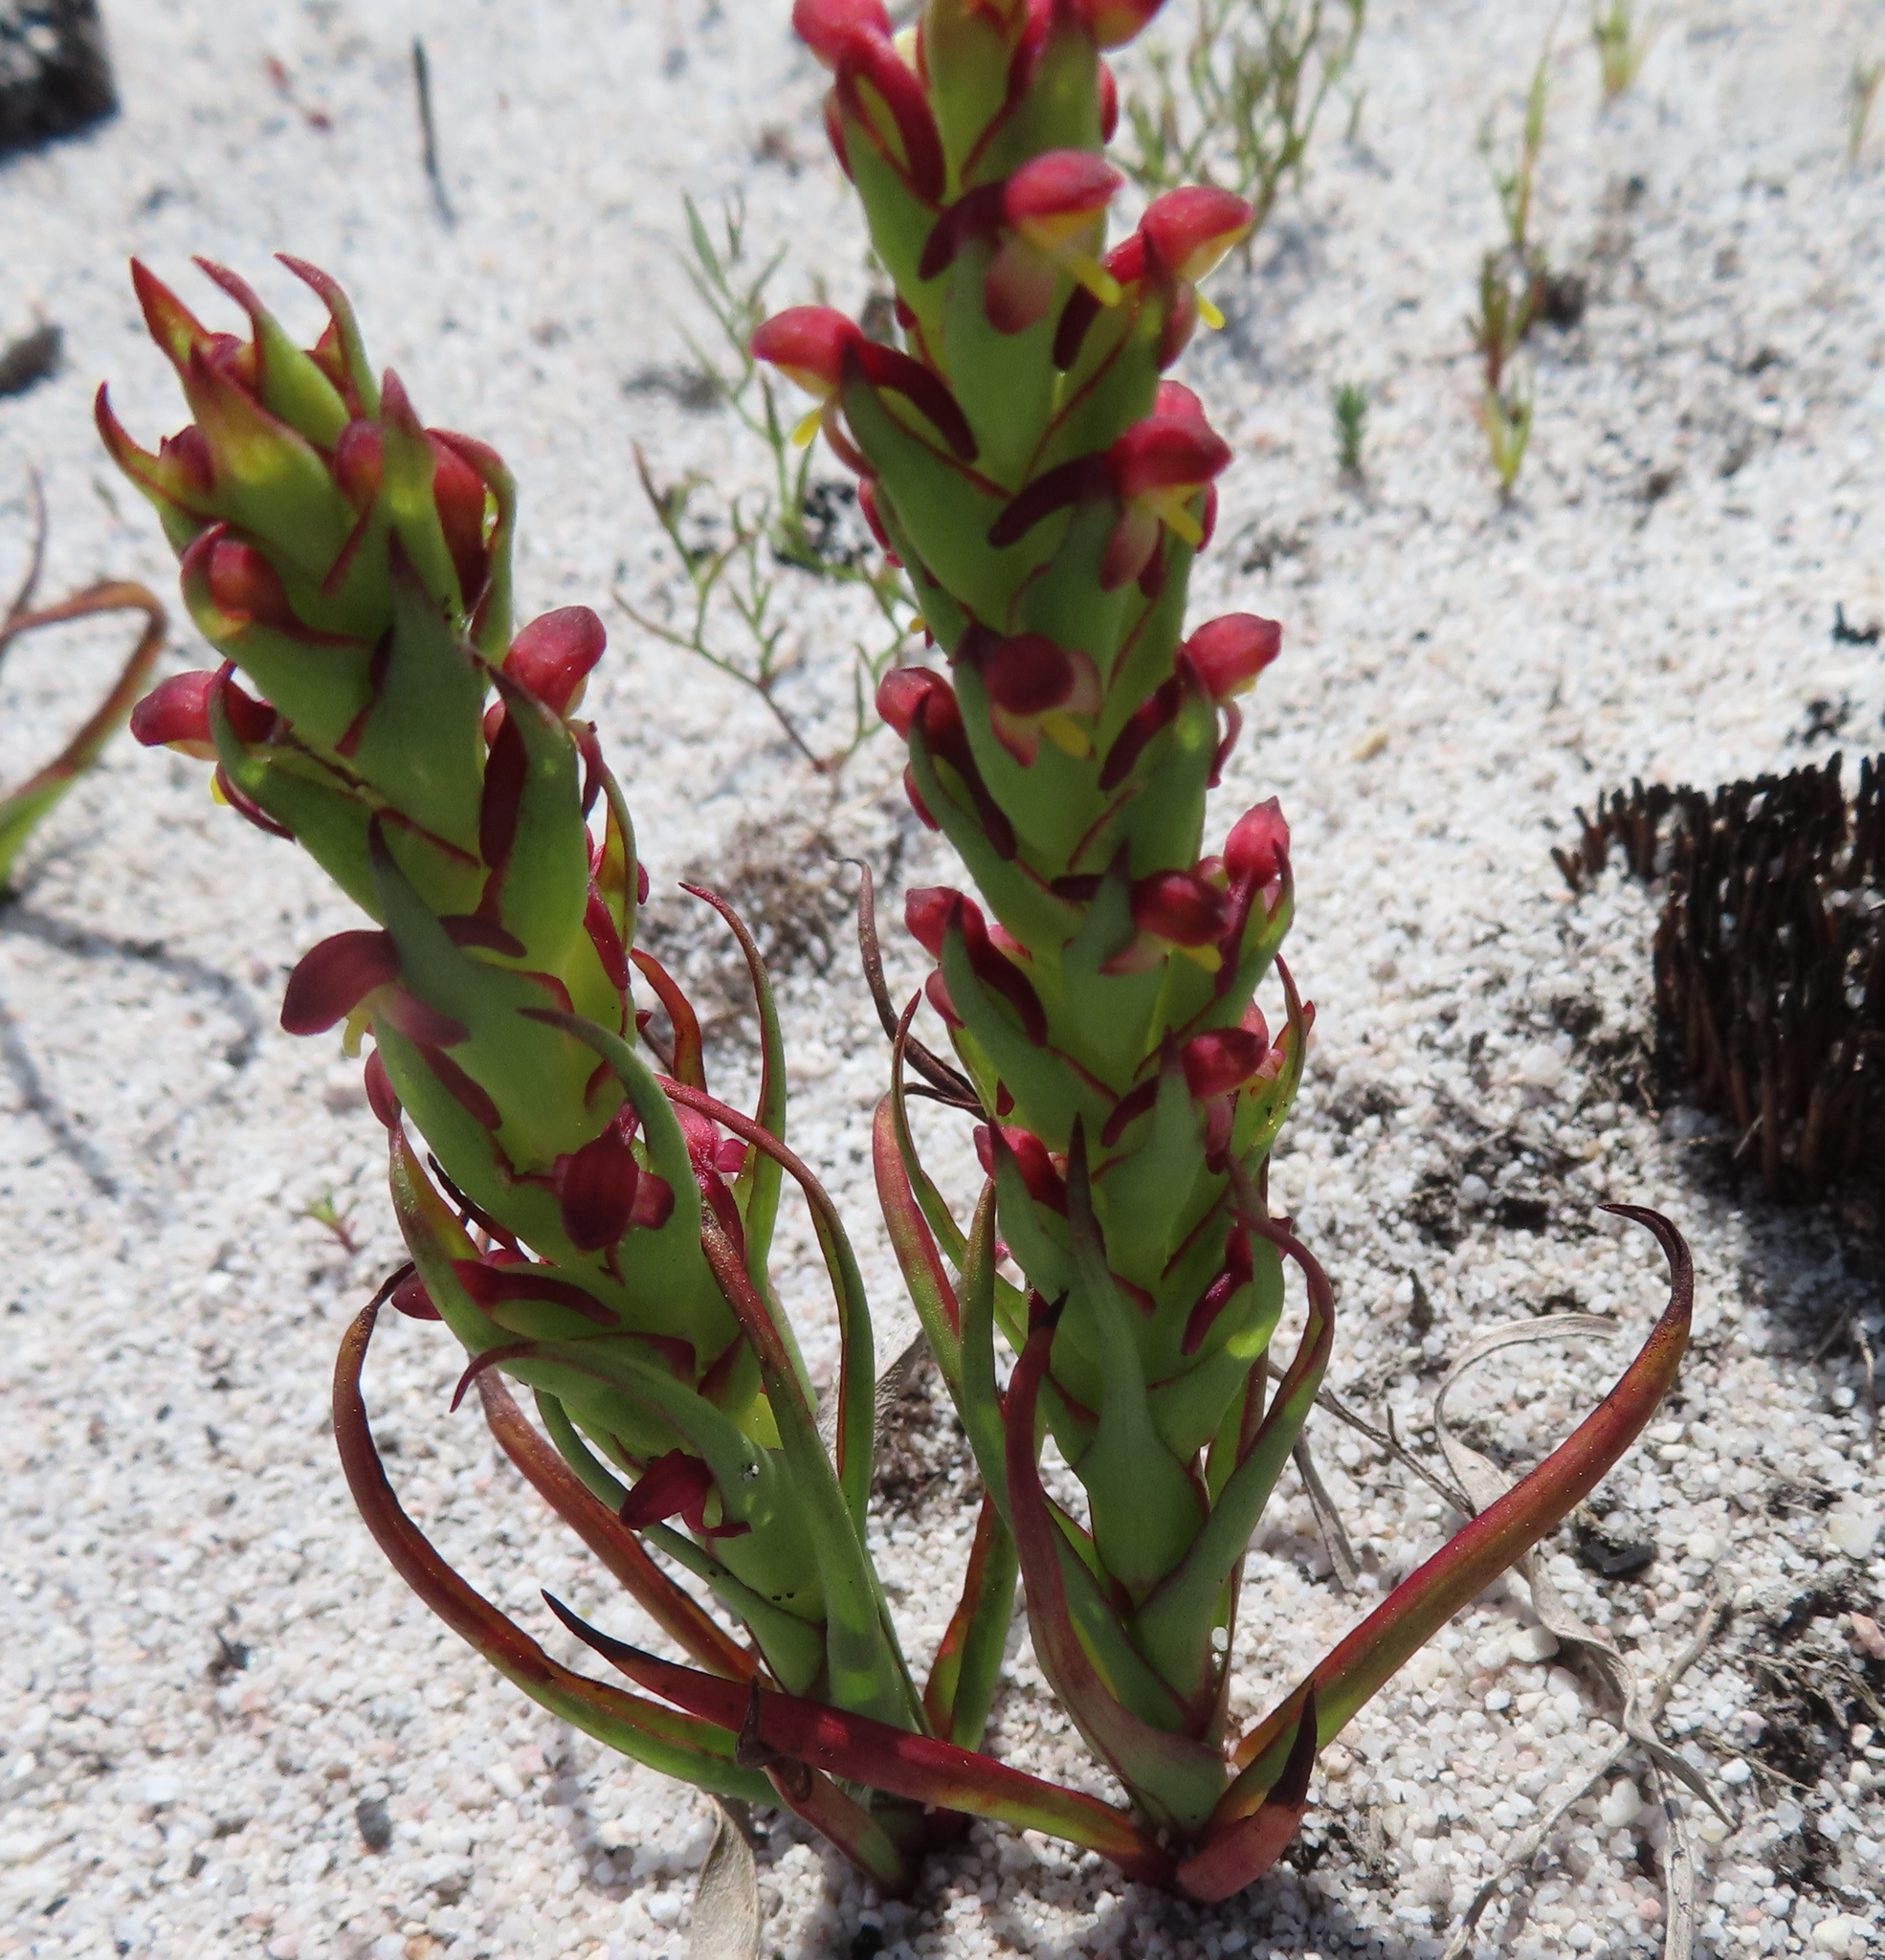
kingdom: Plantae
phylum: Tracheophyta
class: Liliopsida
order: Asparagales
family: Orchidaceae
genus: Disa
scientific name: Disa bracteata
